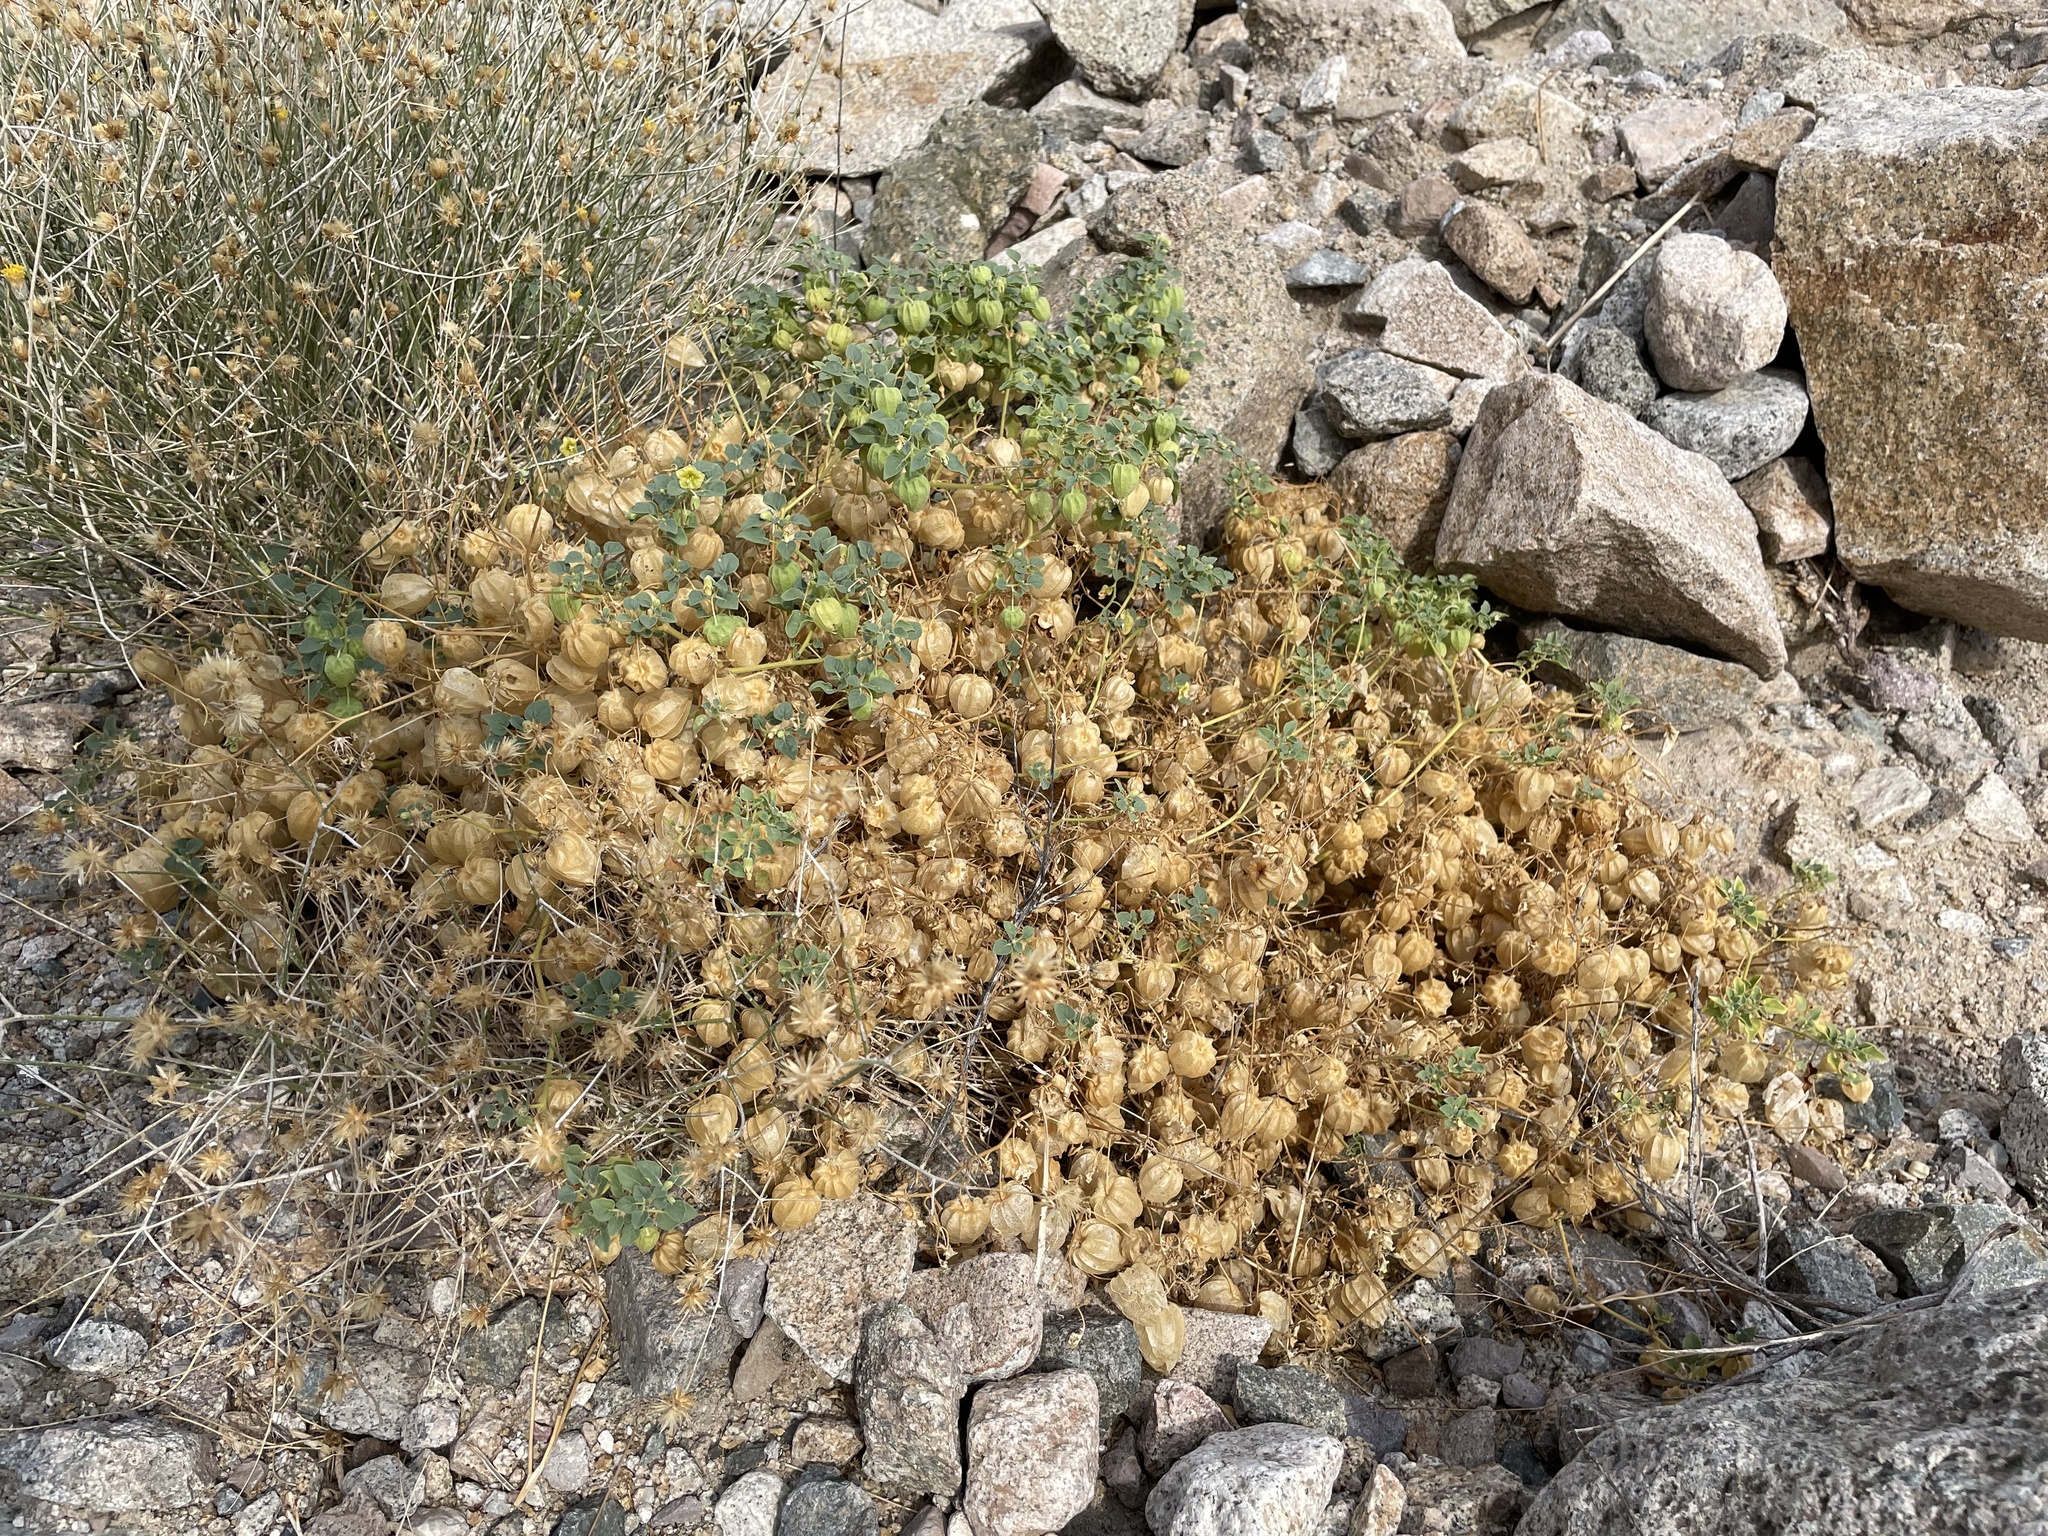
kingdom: Plantae
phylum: Tracheophyta
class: Magnoliopsida
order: Solanales
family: Solanaceae
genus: Physalis
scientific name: Physalis crassifolia
